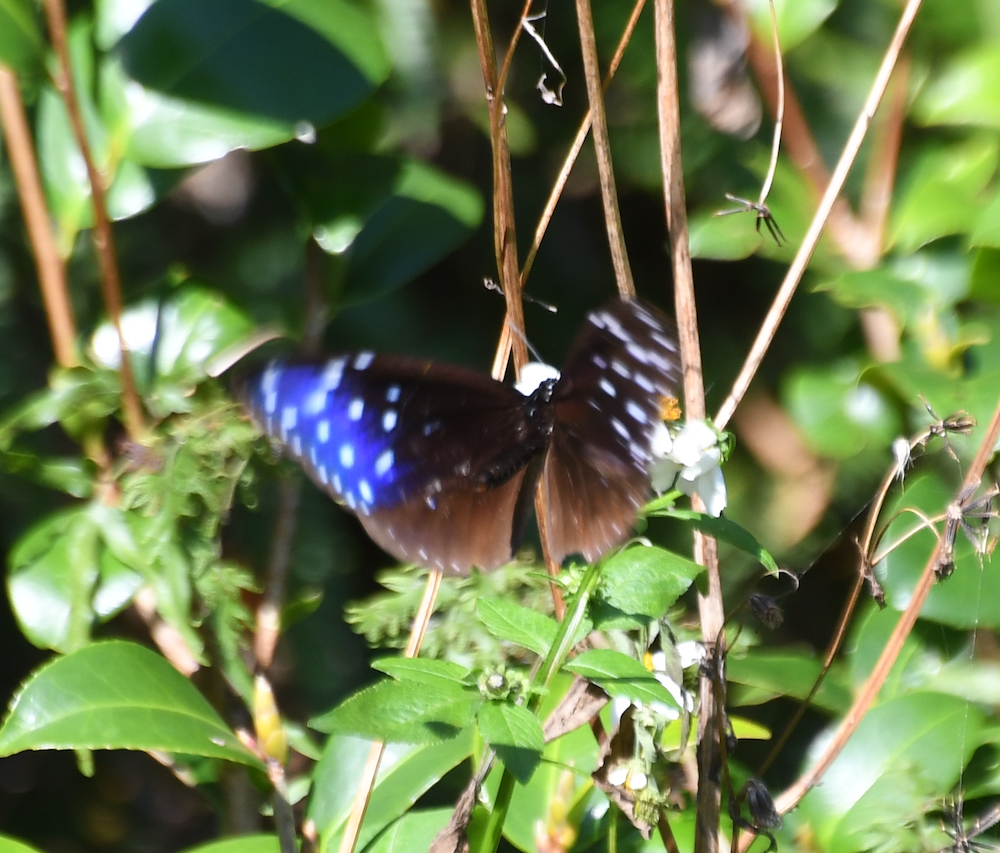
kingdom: Animalia
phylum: Arthropoda
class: Insecta
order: Lepidoptera
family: Nymphalidae
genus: Euploea
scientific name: Euploea mulciber
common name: Striped blue crow butterfly
